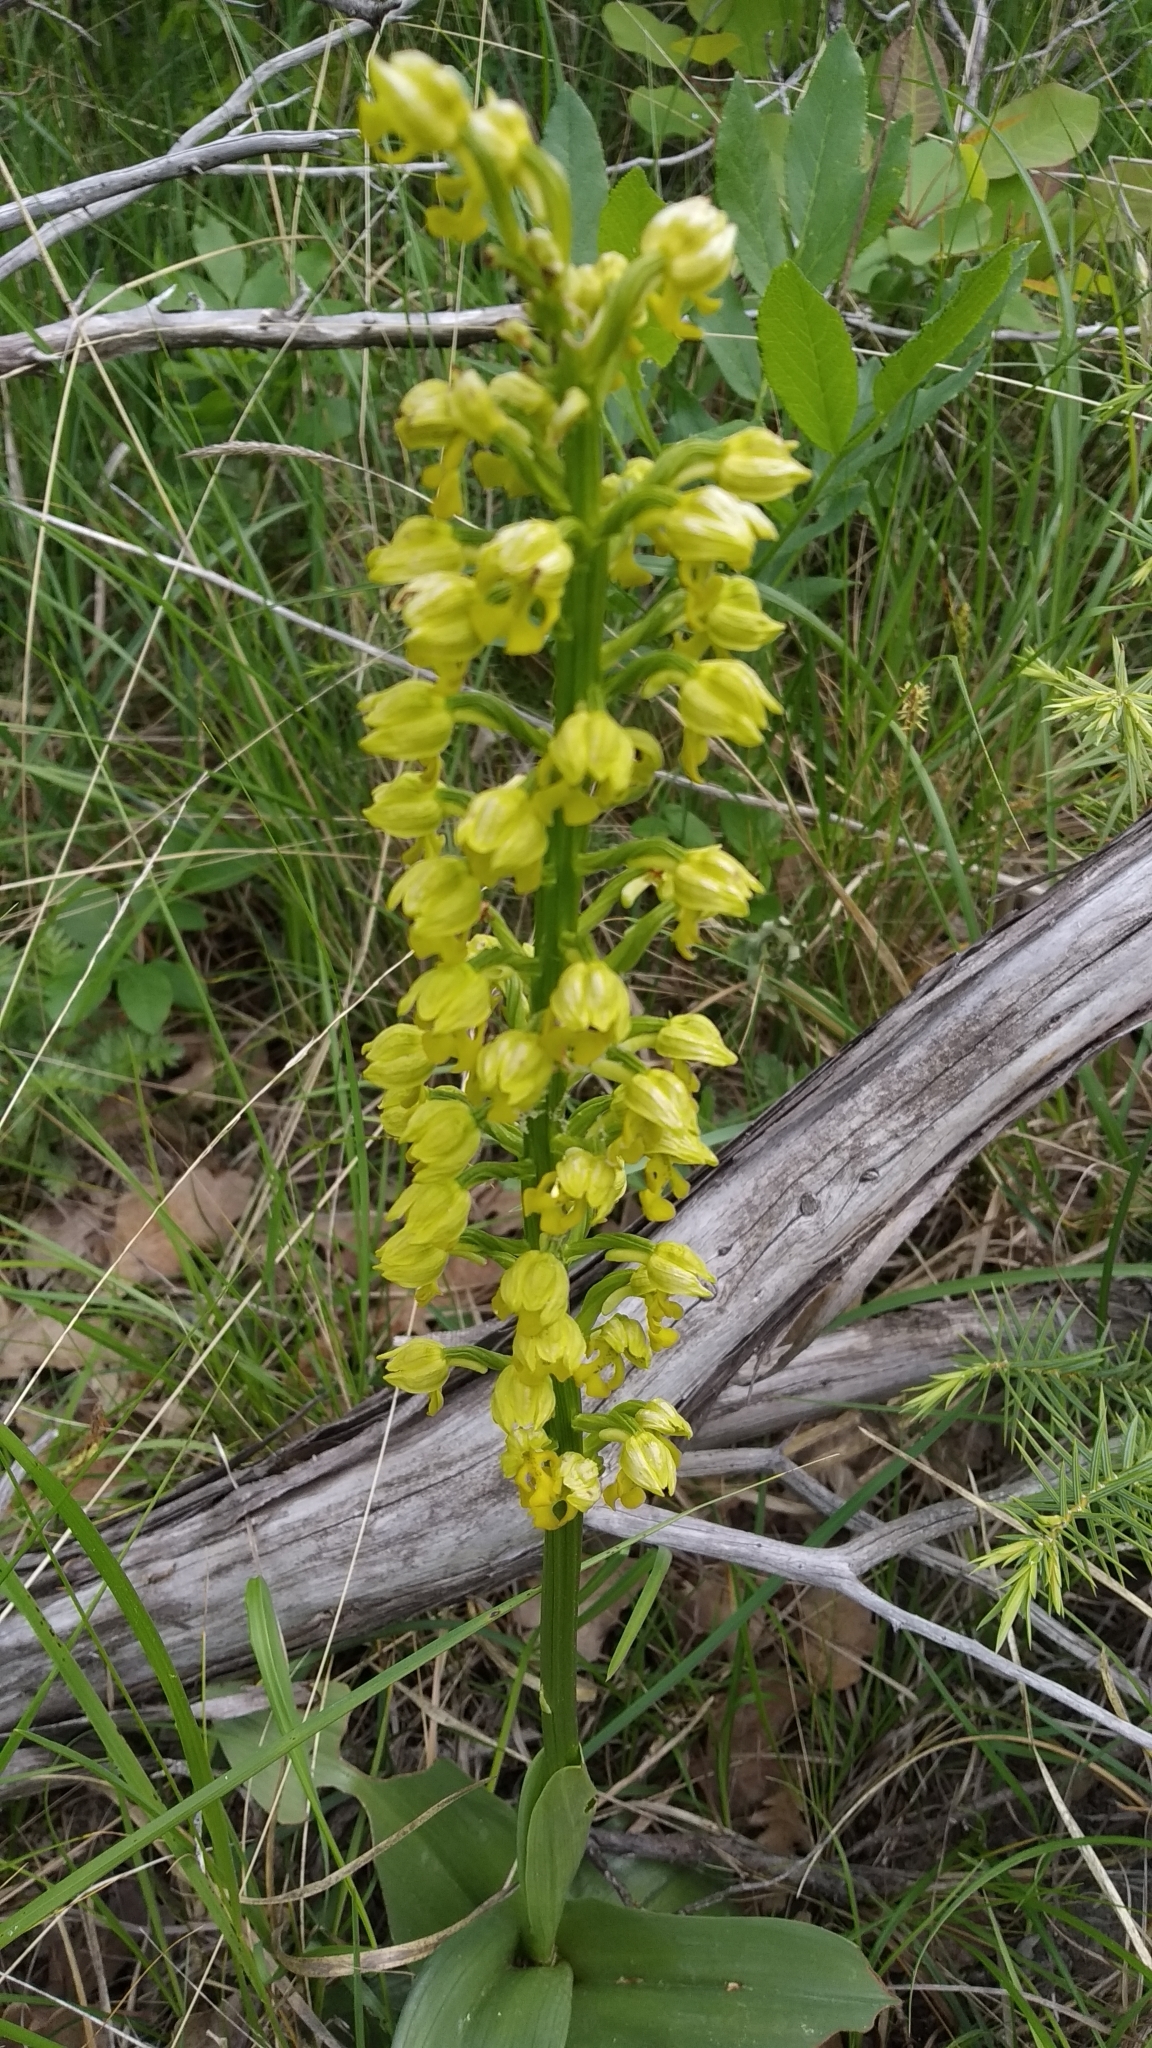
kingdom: Plantae
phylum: Tracheophyta
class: Liliopsida
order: Asparagales
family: Orchidaceae
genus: Orchis
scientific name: Orchis punctulata
